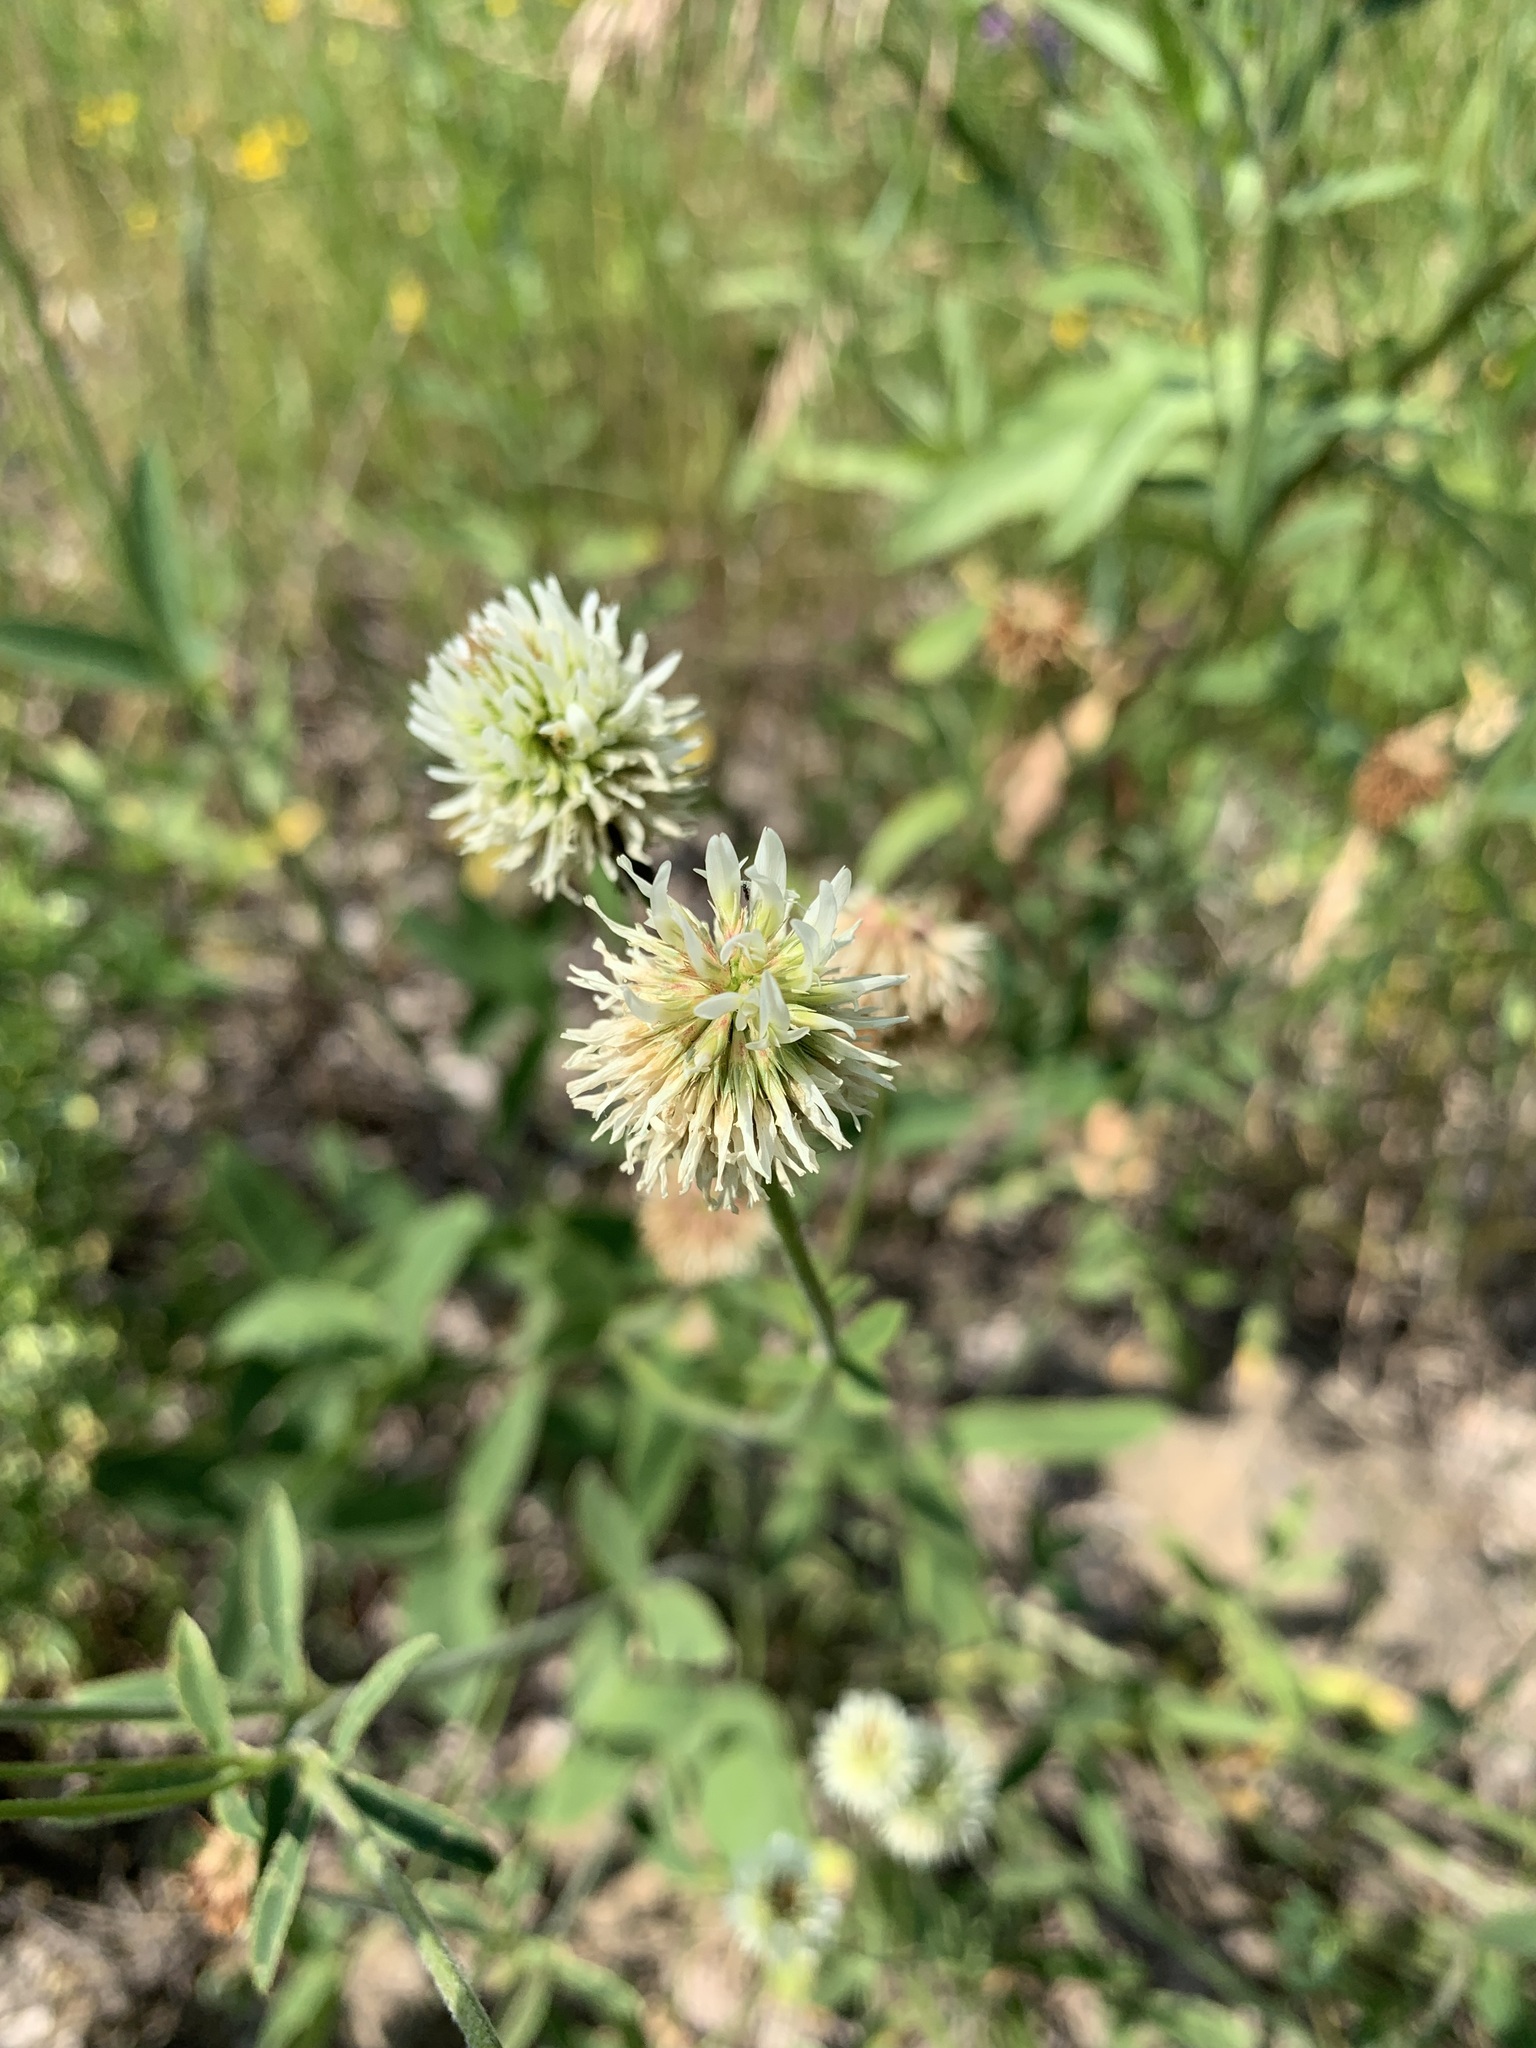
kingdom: Plantae
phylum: Tracheophyta
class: Magnoliopsida
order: Fabales
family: Fabaceae
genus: Trifolium
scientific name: Trifolium montanum
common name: Mountain clover
